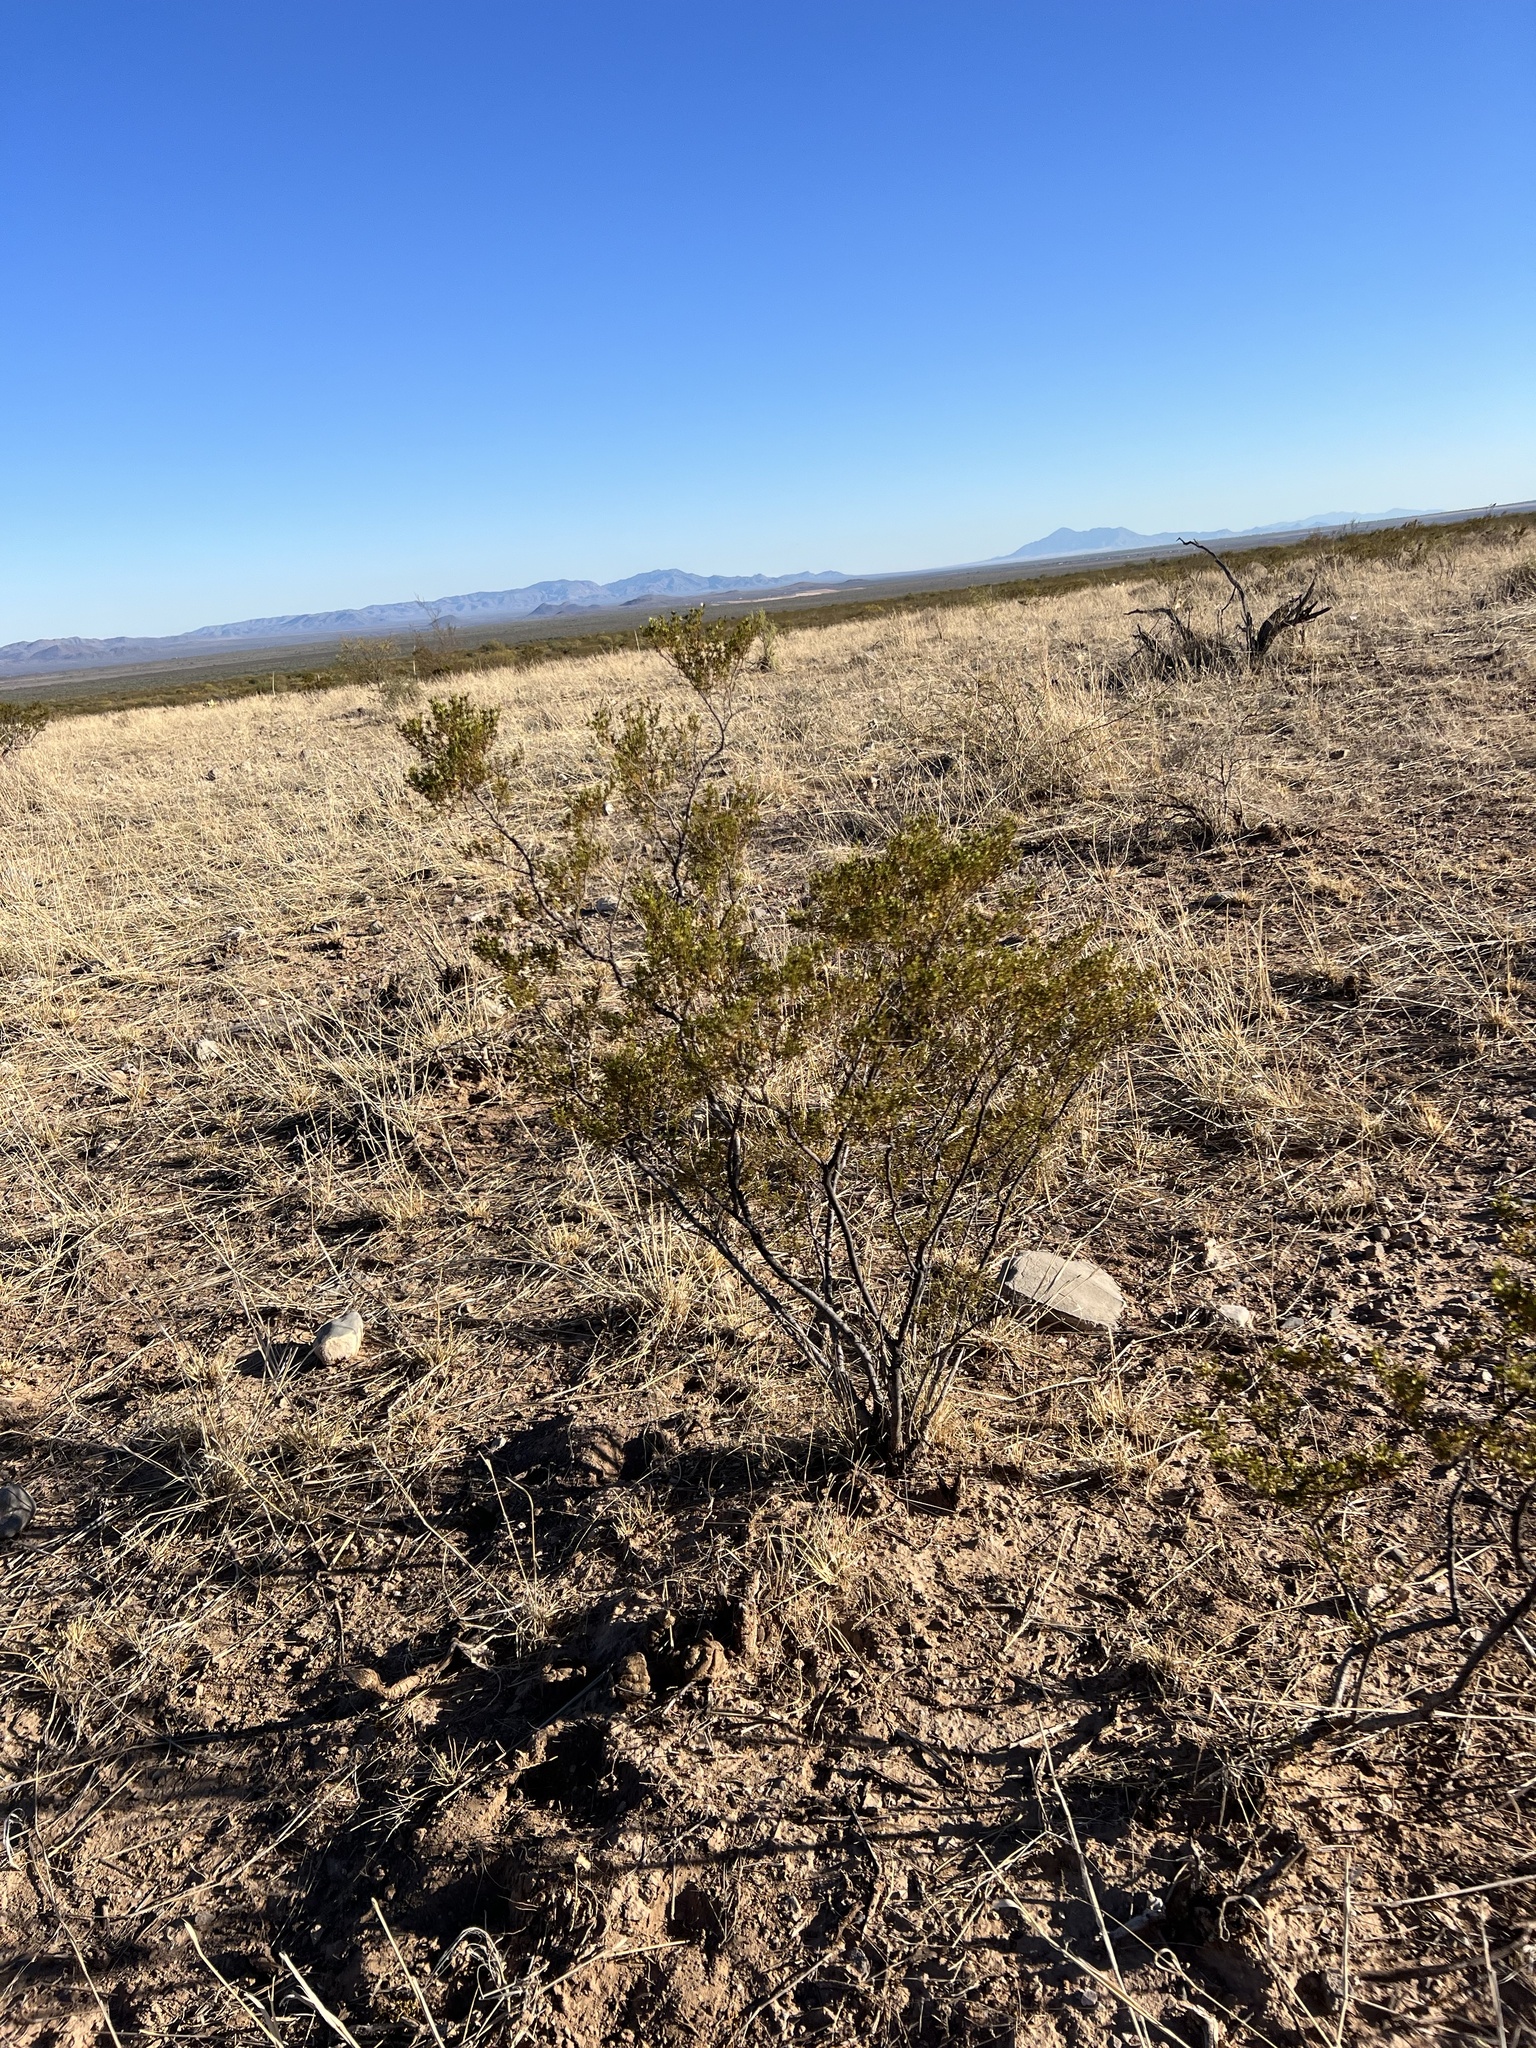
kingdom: Plantae
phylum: Tracheophyta
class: Magnoliopsida
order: Zygophyllales
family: Zygophyllaceae
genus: Larrea
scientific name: Larrea tridentata
